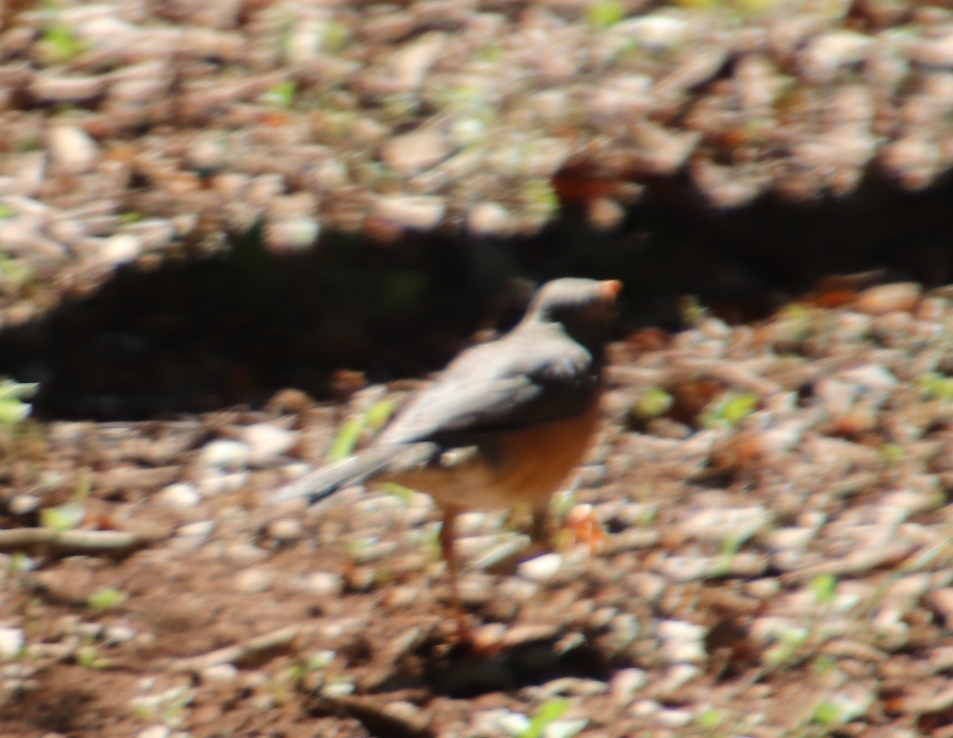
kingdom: Animalia
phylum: Chordata
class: Aves
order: Passeriformes
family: Turdidae
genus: Turdus
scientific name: Turdus libonyana
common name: Kurrichane thrush
